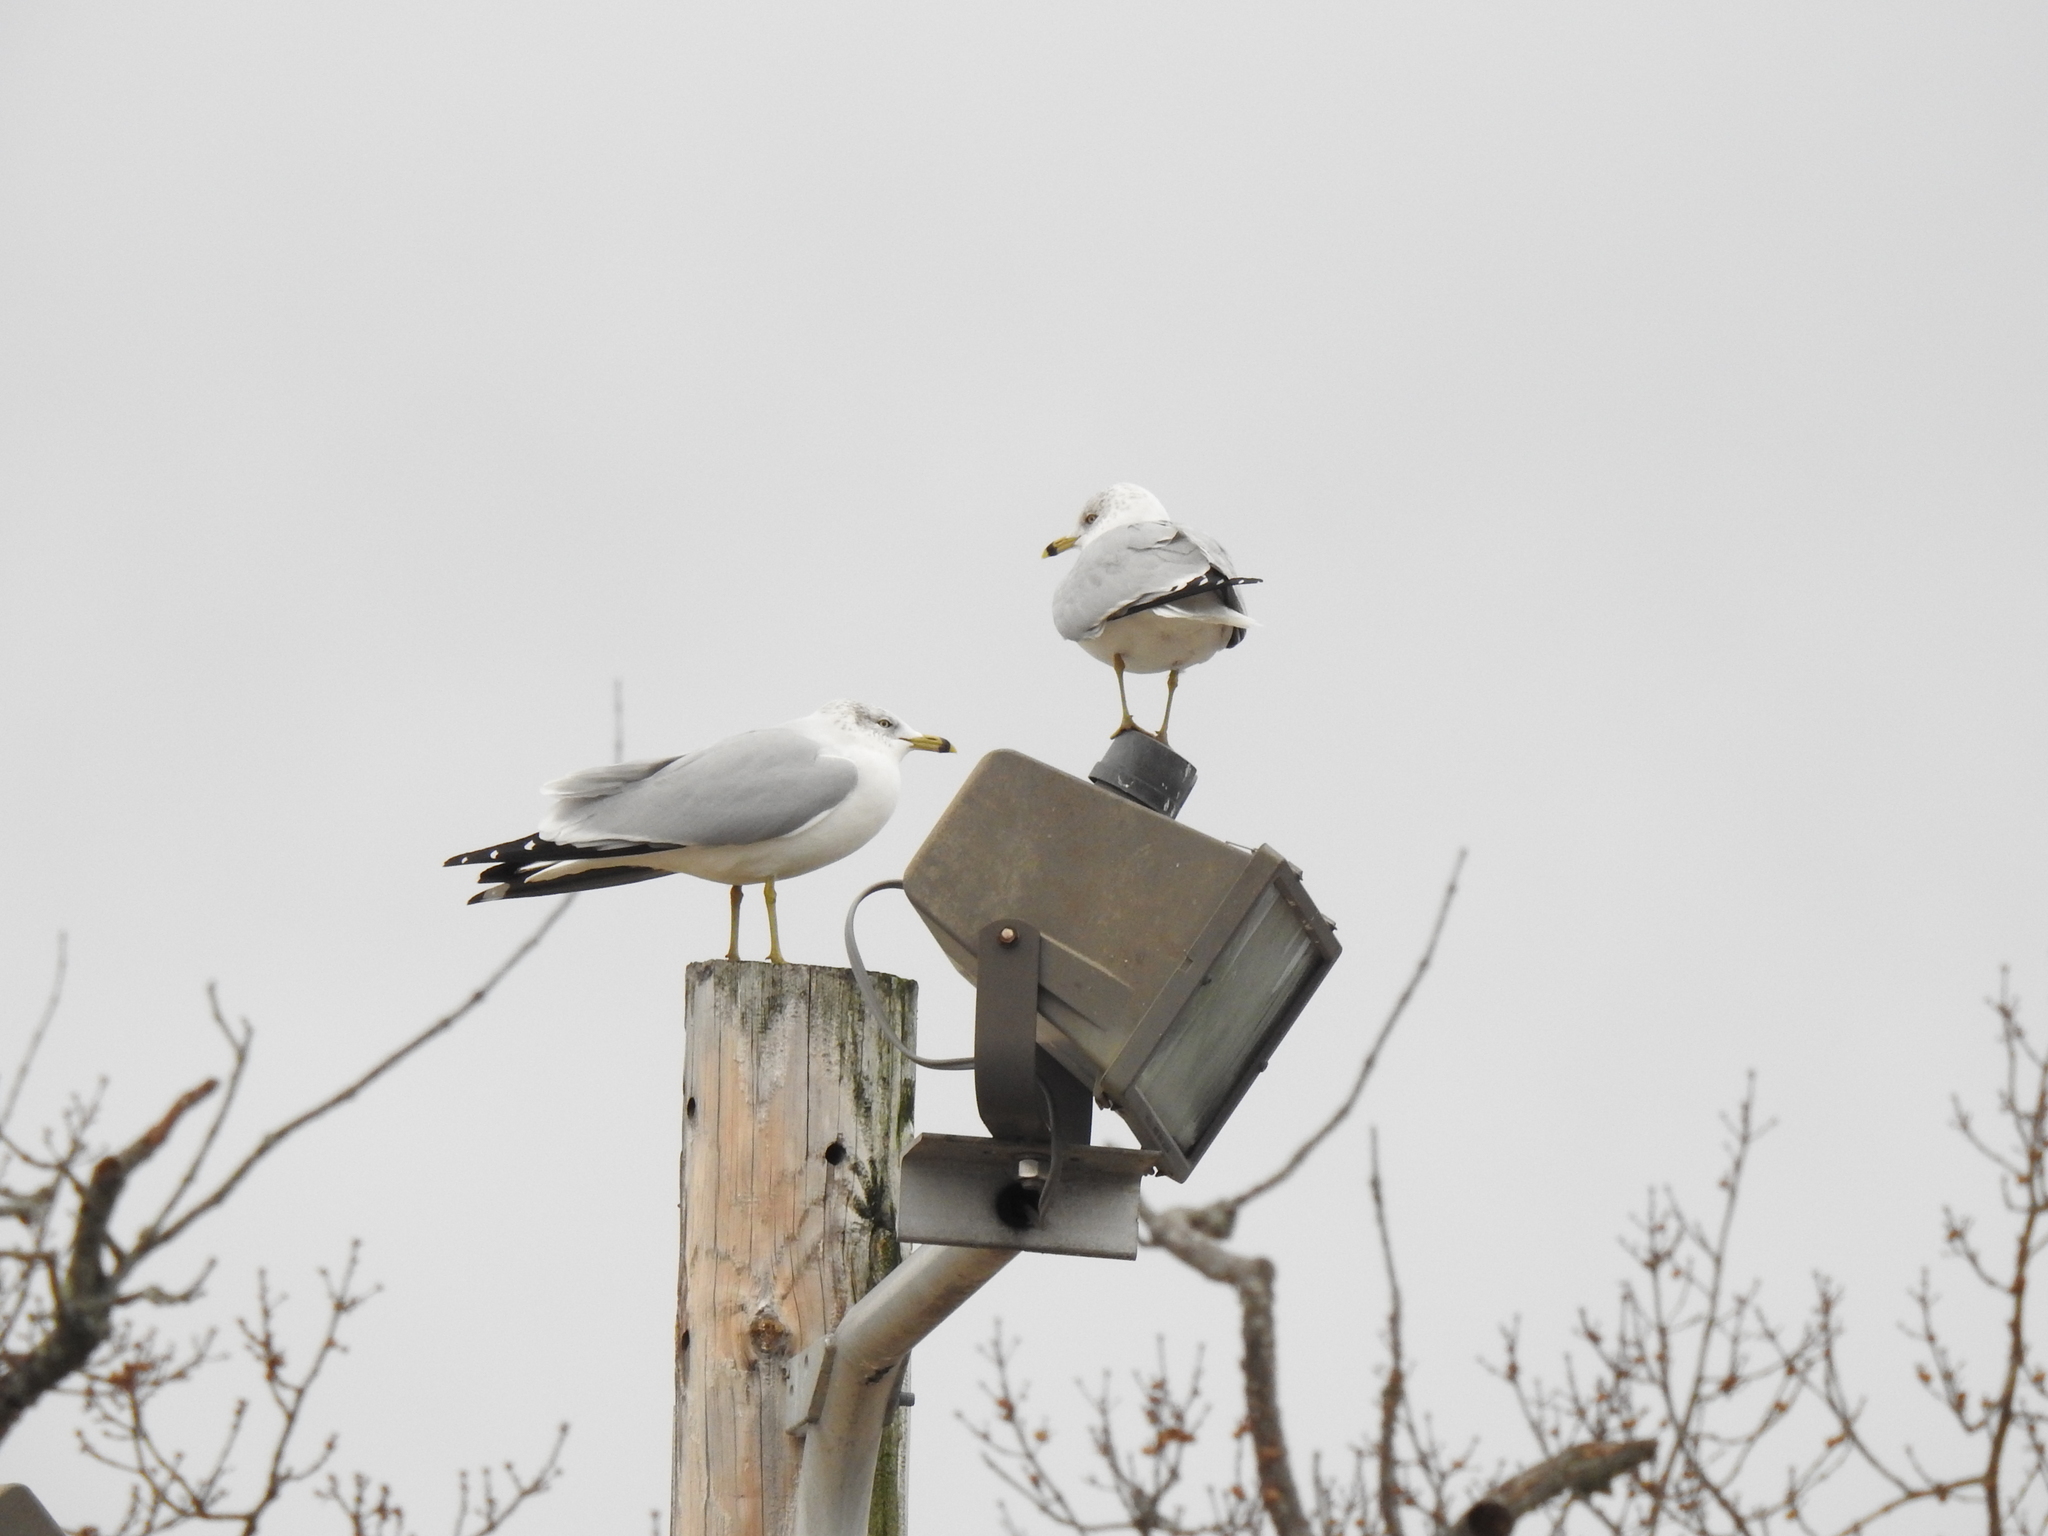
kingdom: Animalia
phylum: Chordata
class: Aves
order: Charadriiformes
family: Laridae
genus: Larus
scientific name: Larus delawarensis
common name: Ring-billed gull
